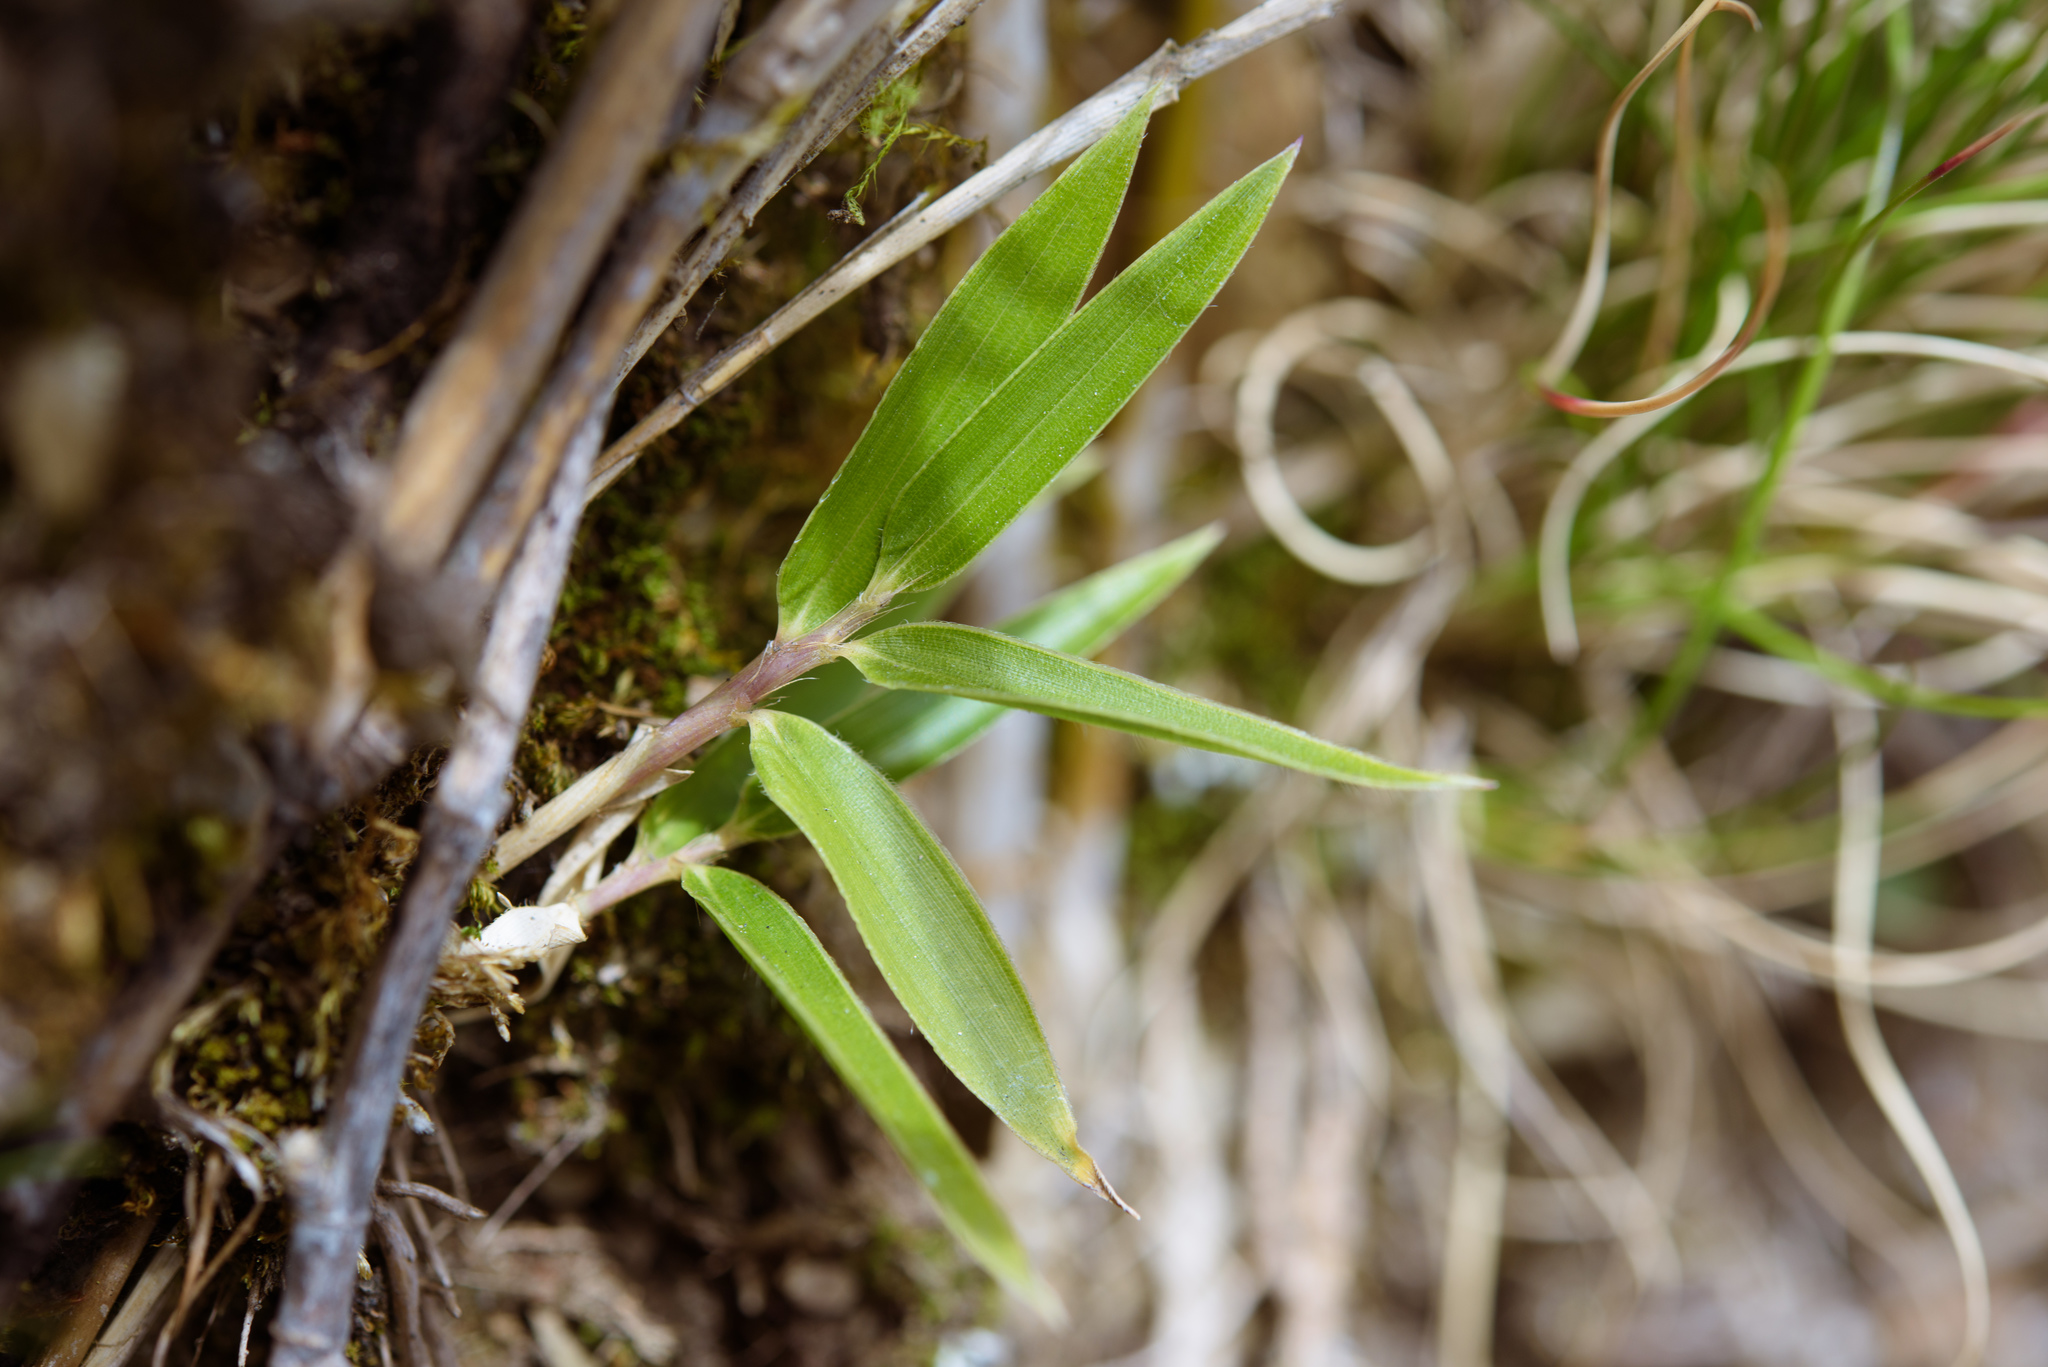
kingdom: Plantae
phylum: Tracheophyta
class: Liliopsida
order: Poales
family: Poaceae
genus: Yushania
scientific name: Yushania niitakayamensis
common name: Yushan cane
